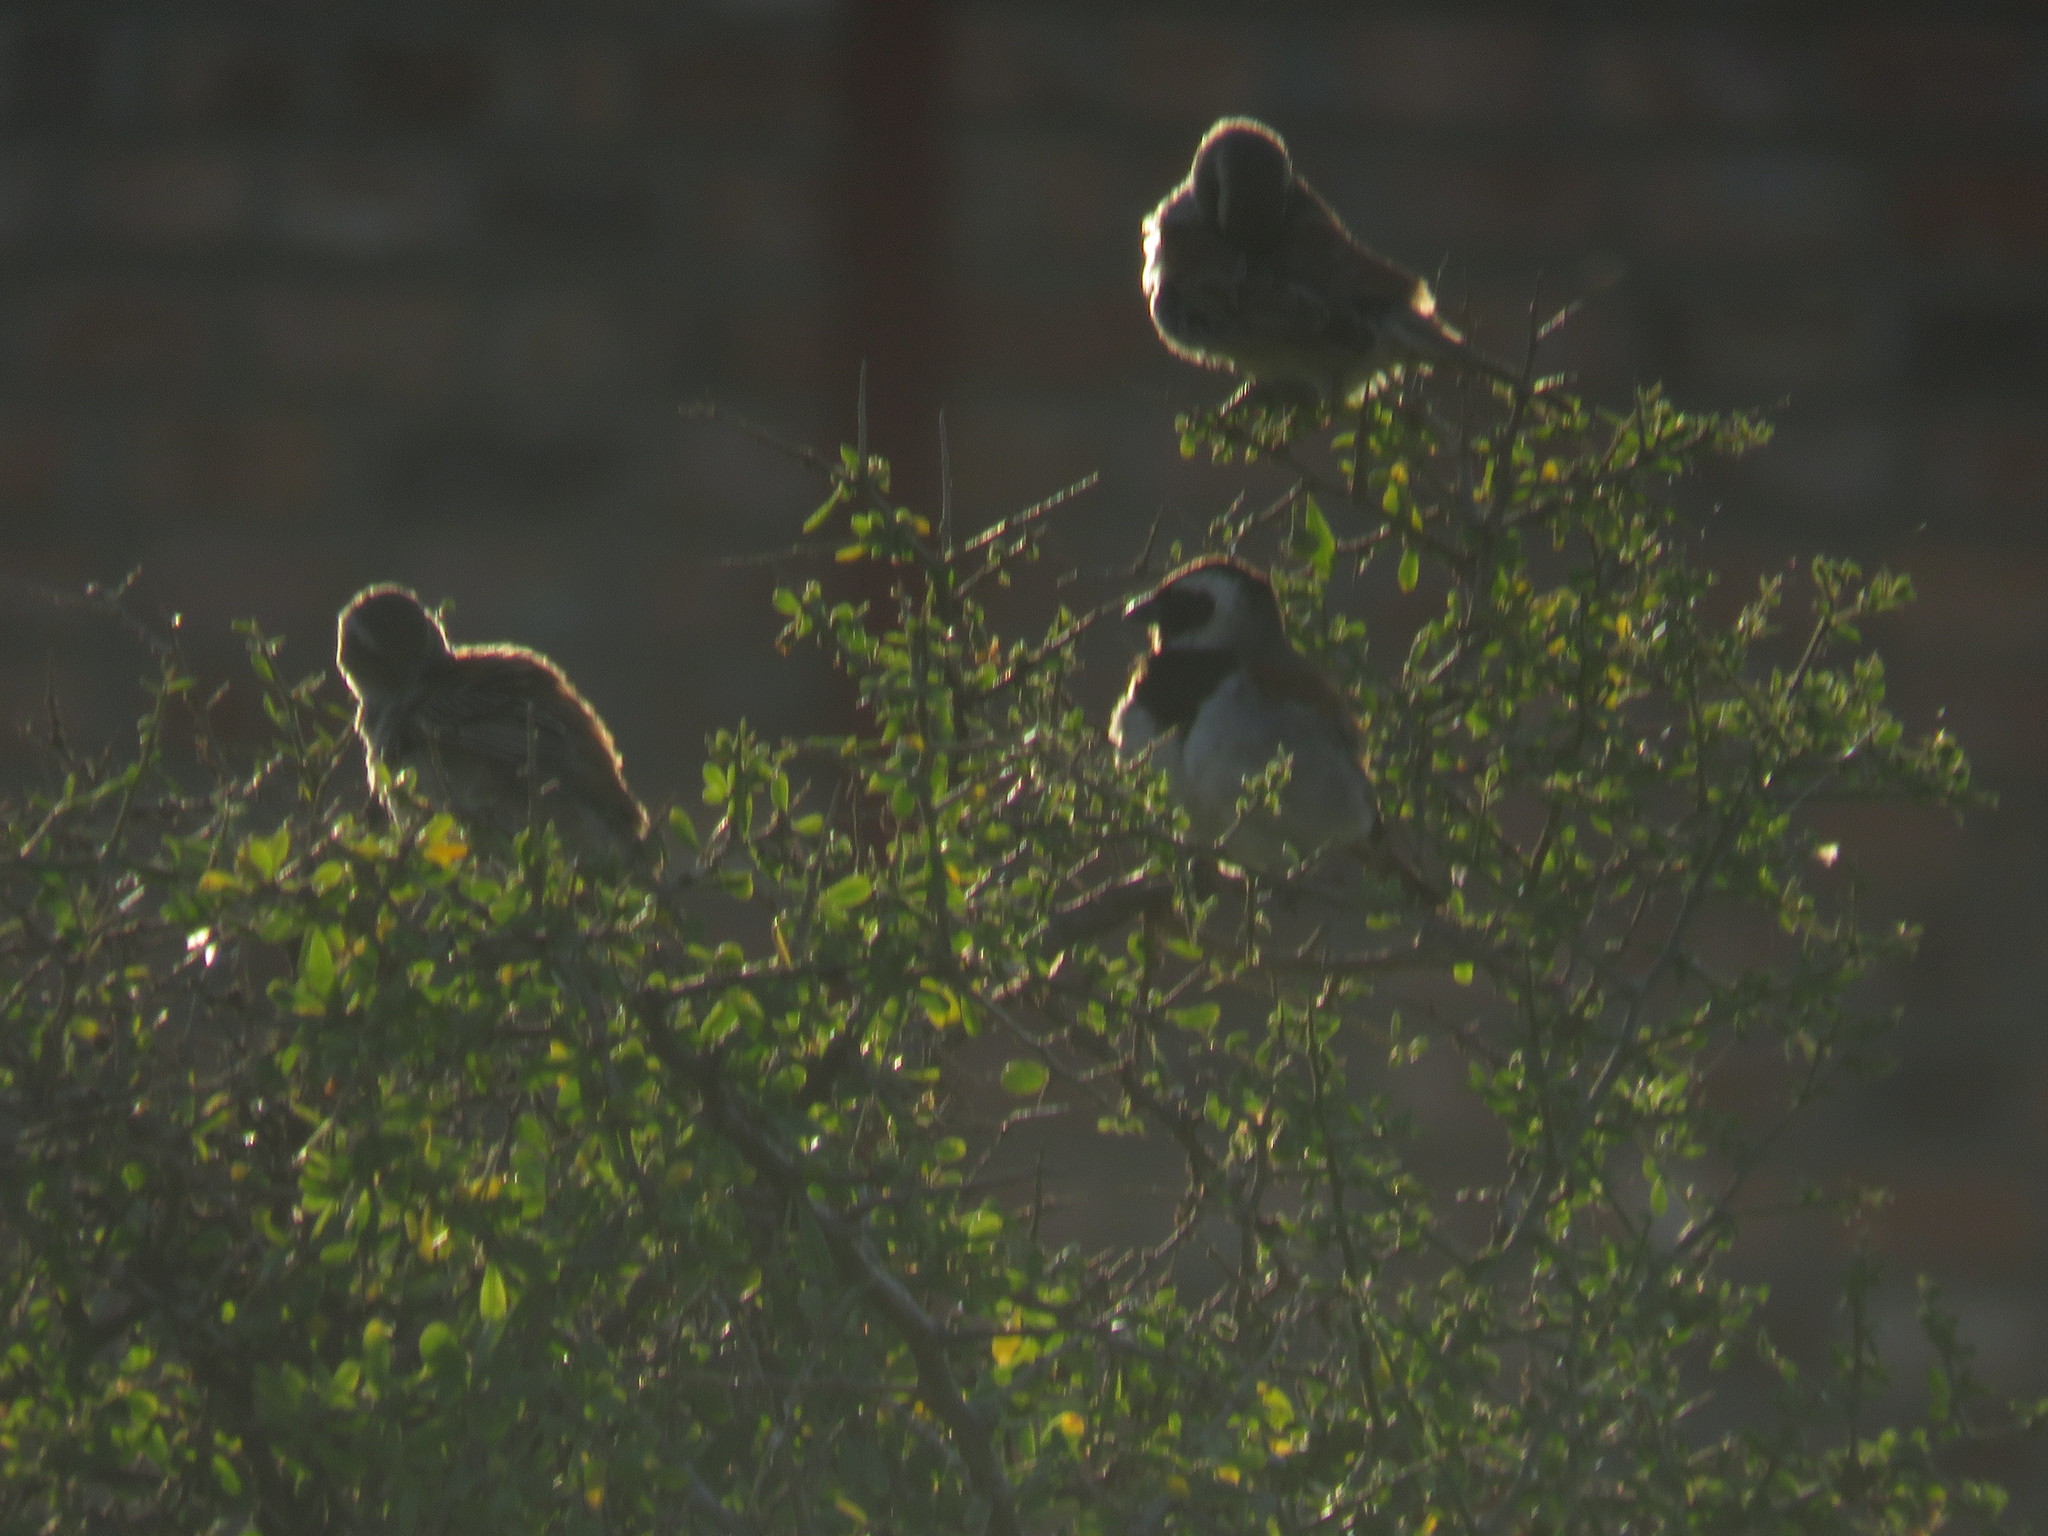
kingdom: Animalia
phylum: Chordata
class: Aves
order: Passeriformes
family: Passeridae
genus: Passer
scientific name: Passer melanurus
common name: Cape sparrow
